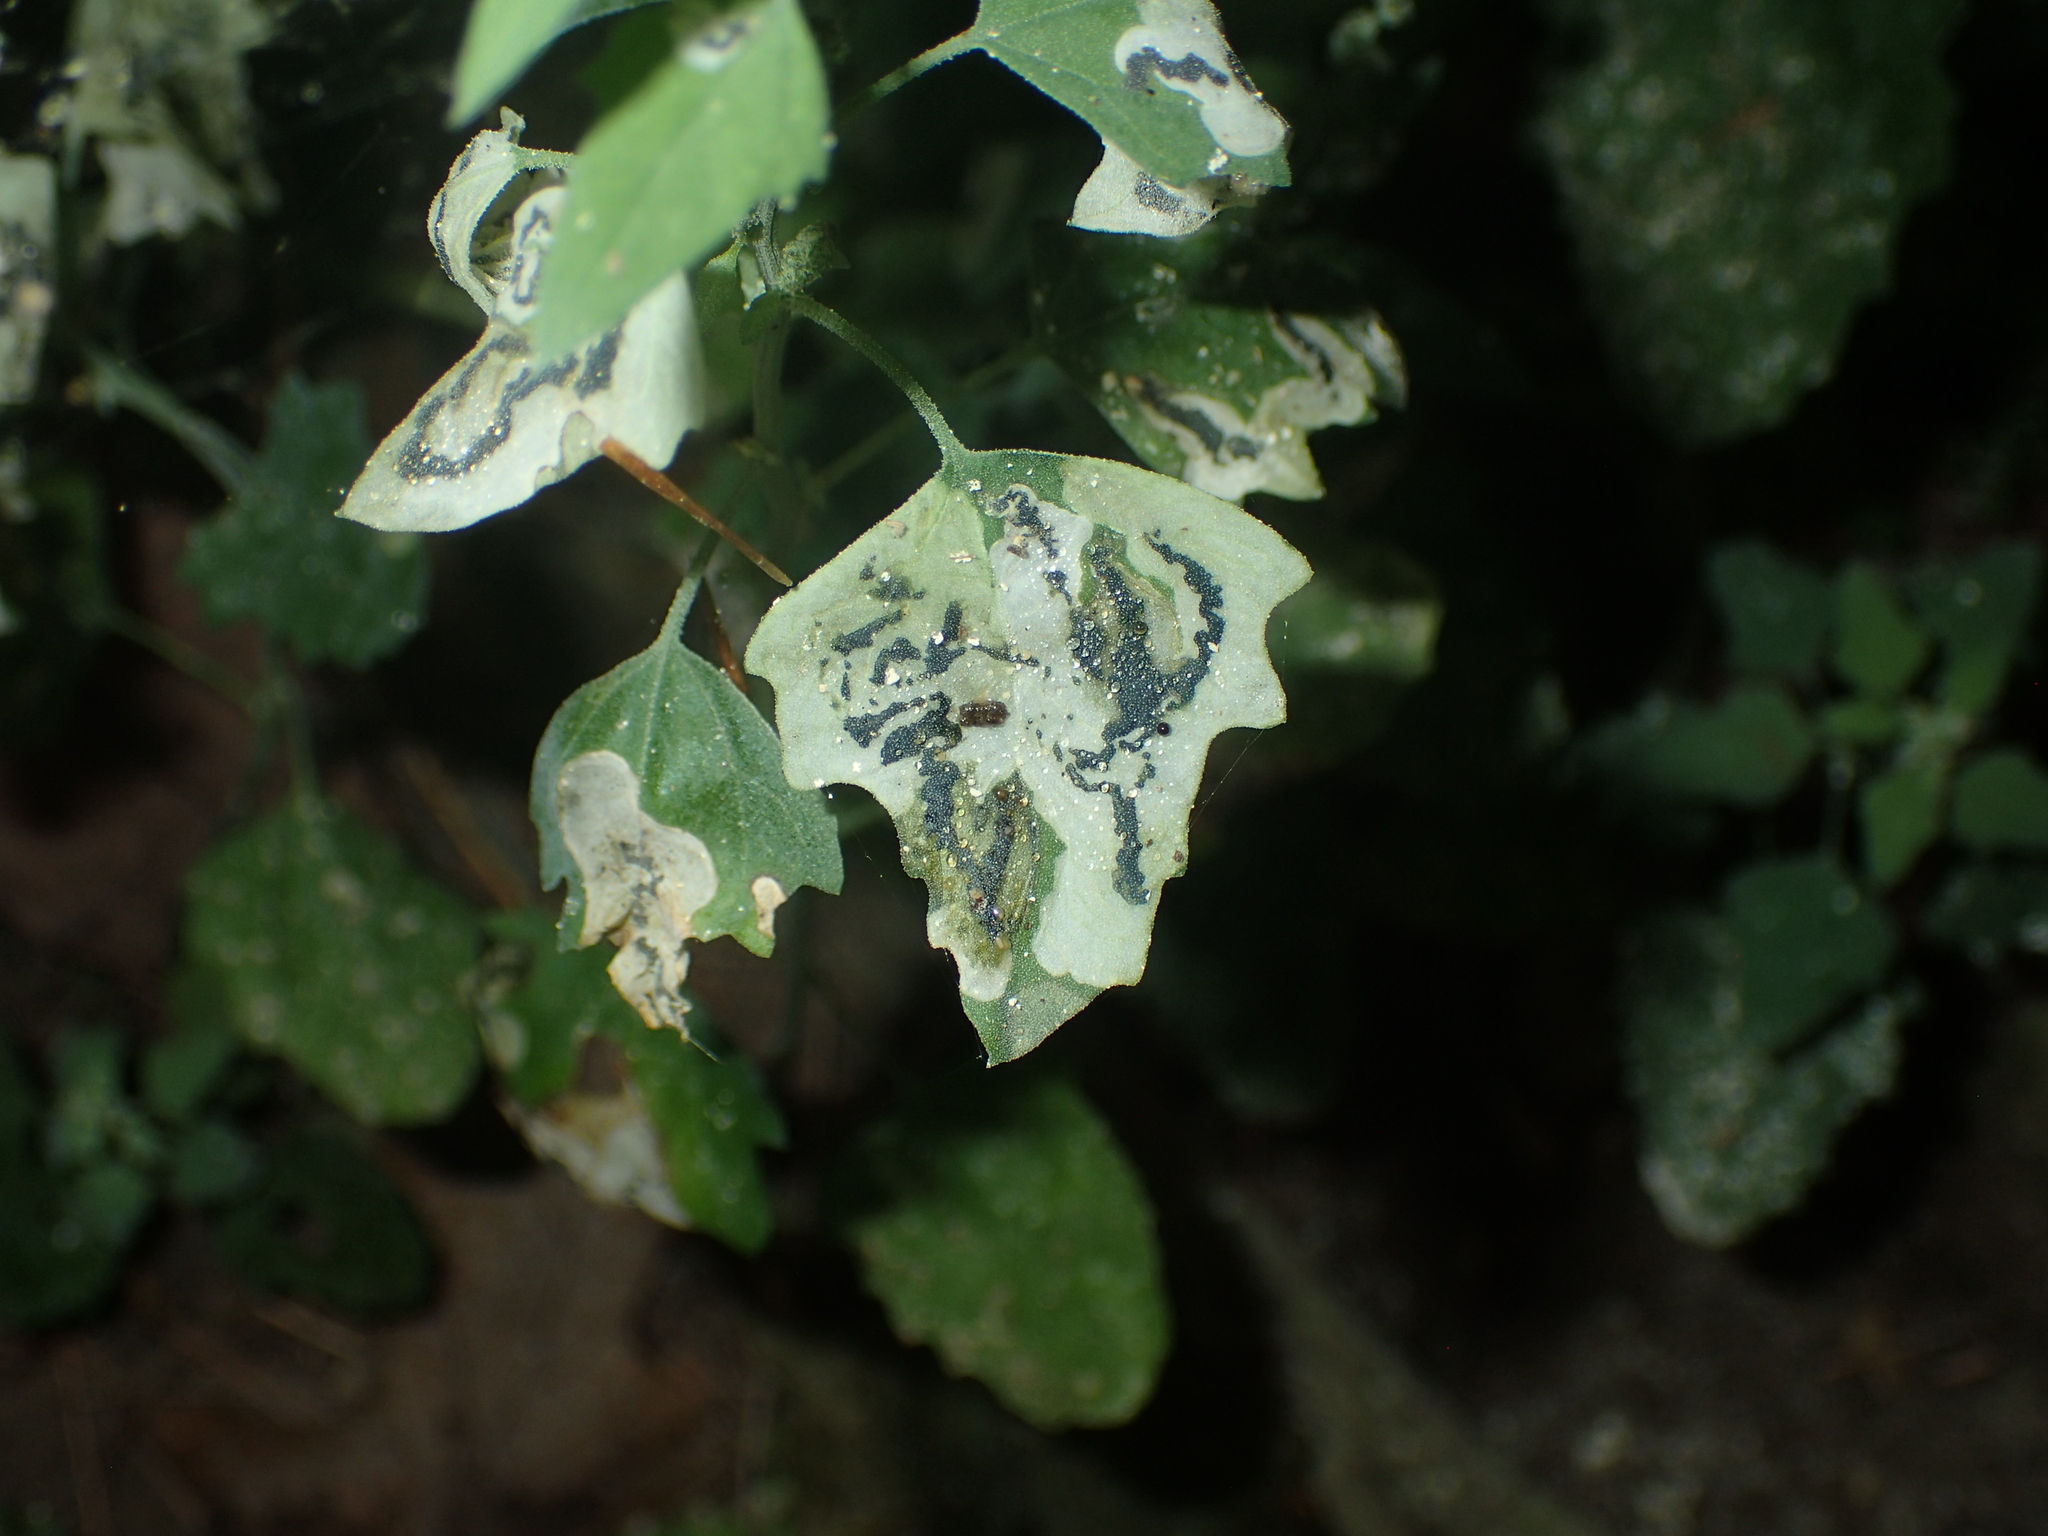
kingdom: Animalia
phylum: Arthropoda
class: Insecta
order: Lepidoptera
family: Gelechiidae
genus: Chrysoesthia
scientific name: Chrysoesthia sexguttella
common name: Moth
